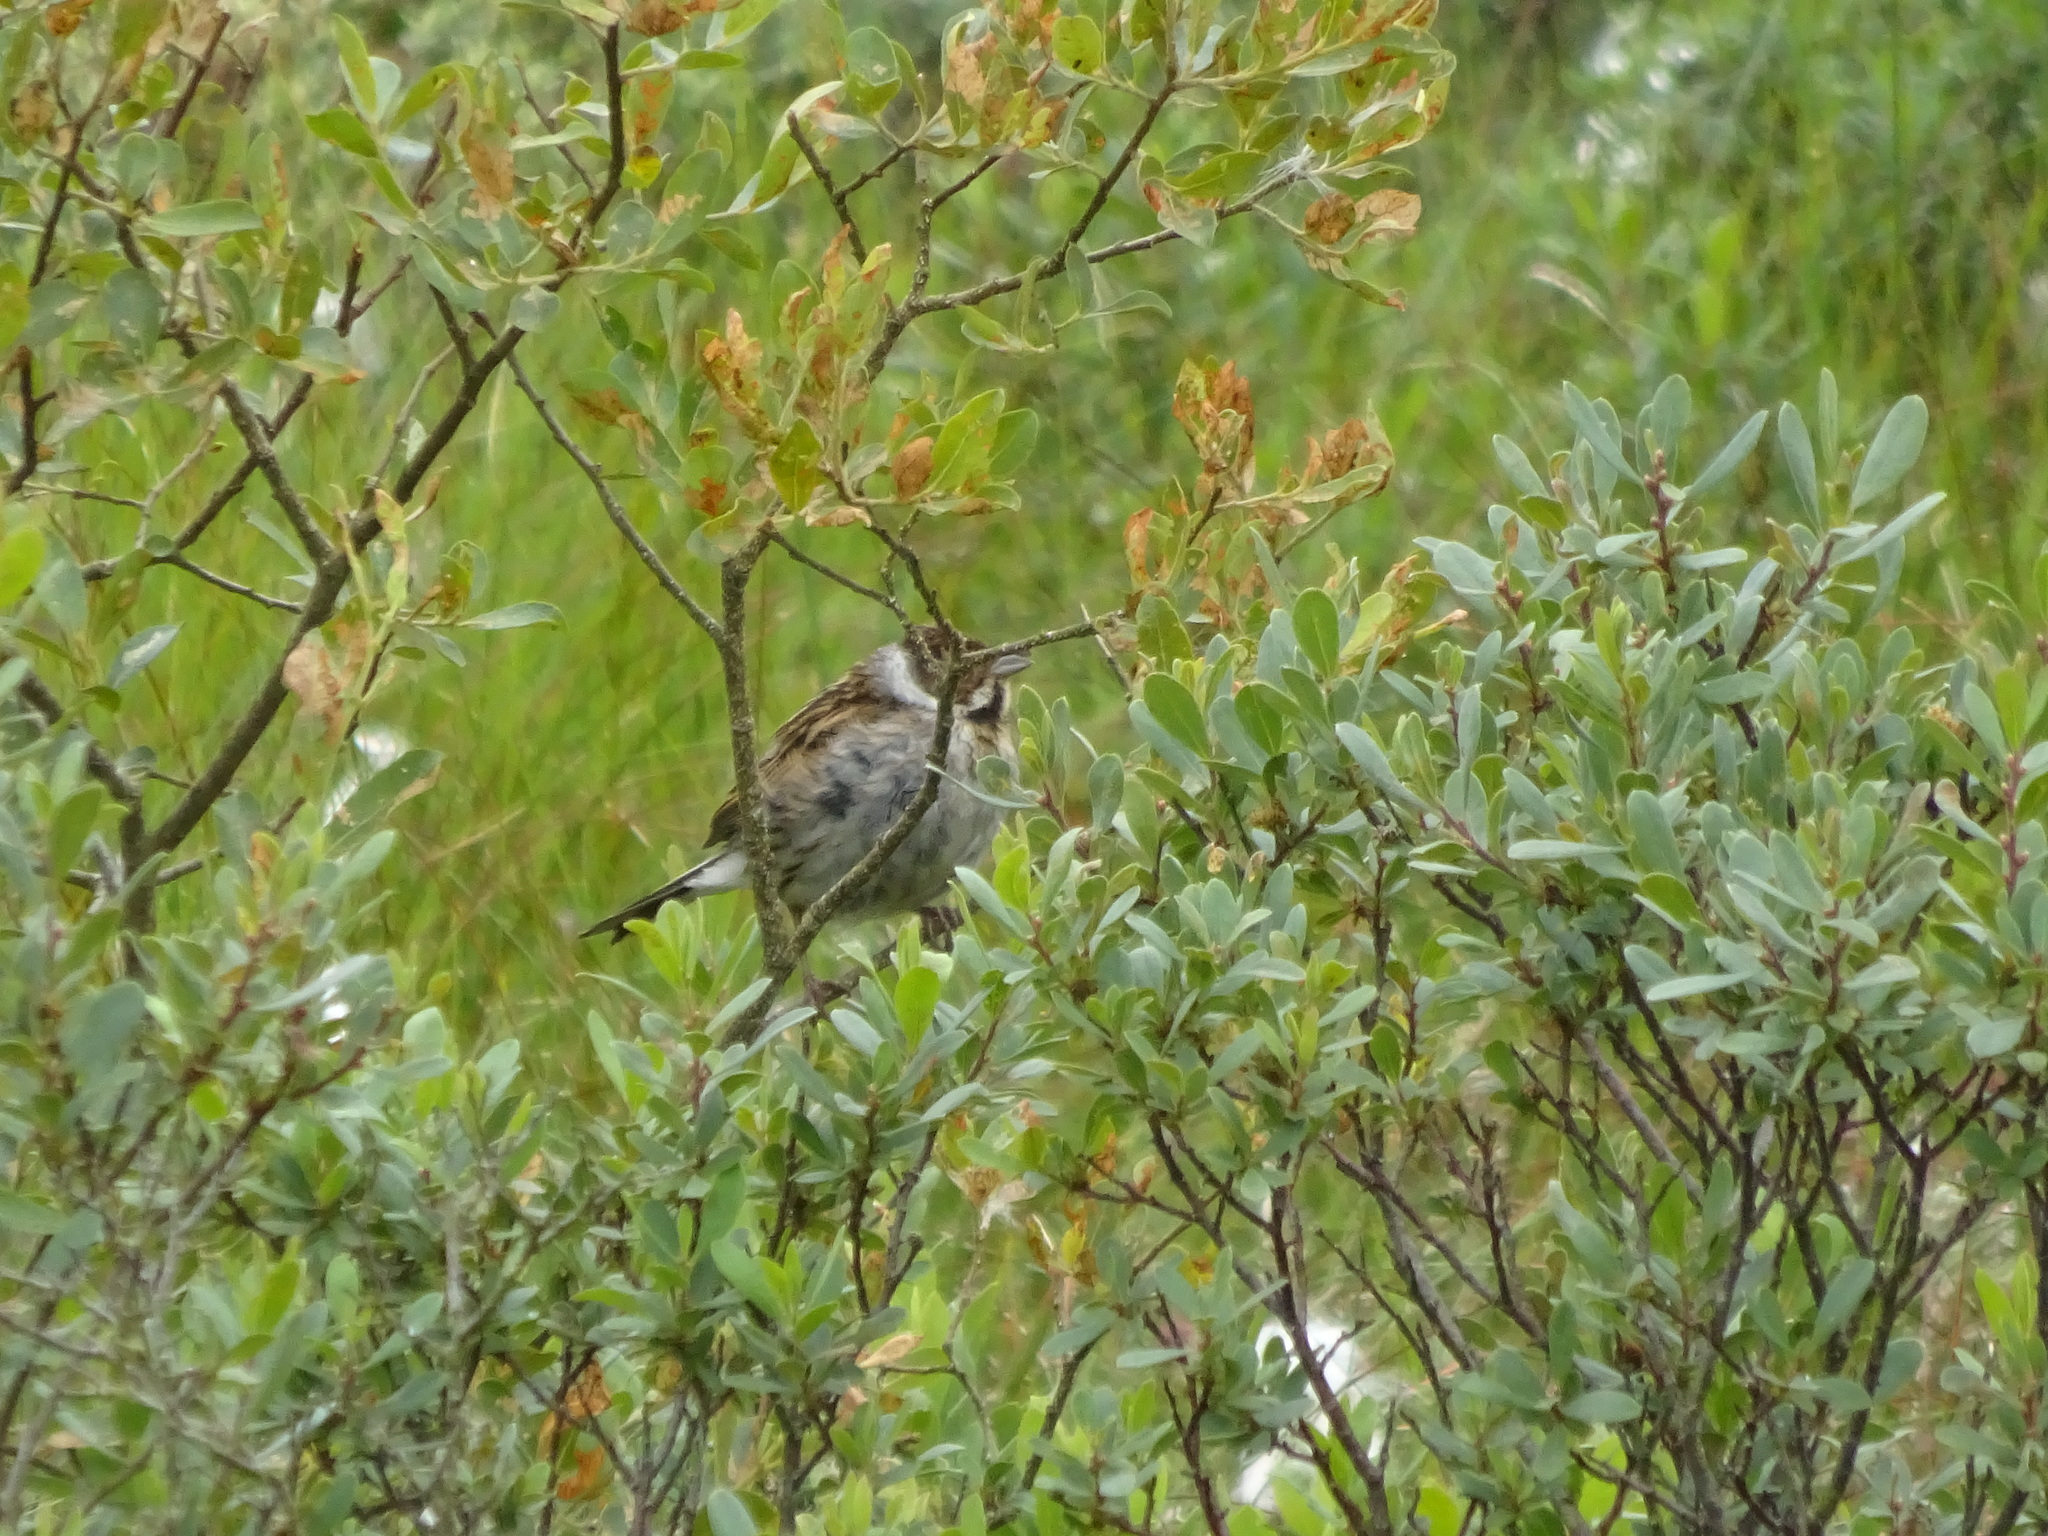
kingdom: Animalia
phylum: Chordata
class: Aves
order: Passeriformes
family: Emberizidae
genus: Emberiza
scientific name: Emberiza schoeniclus
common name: Reed bunting
